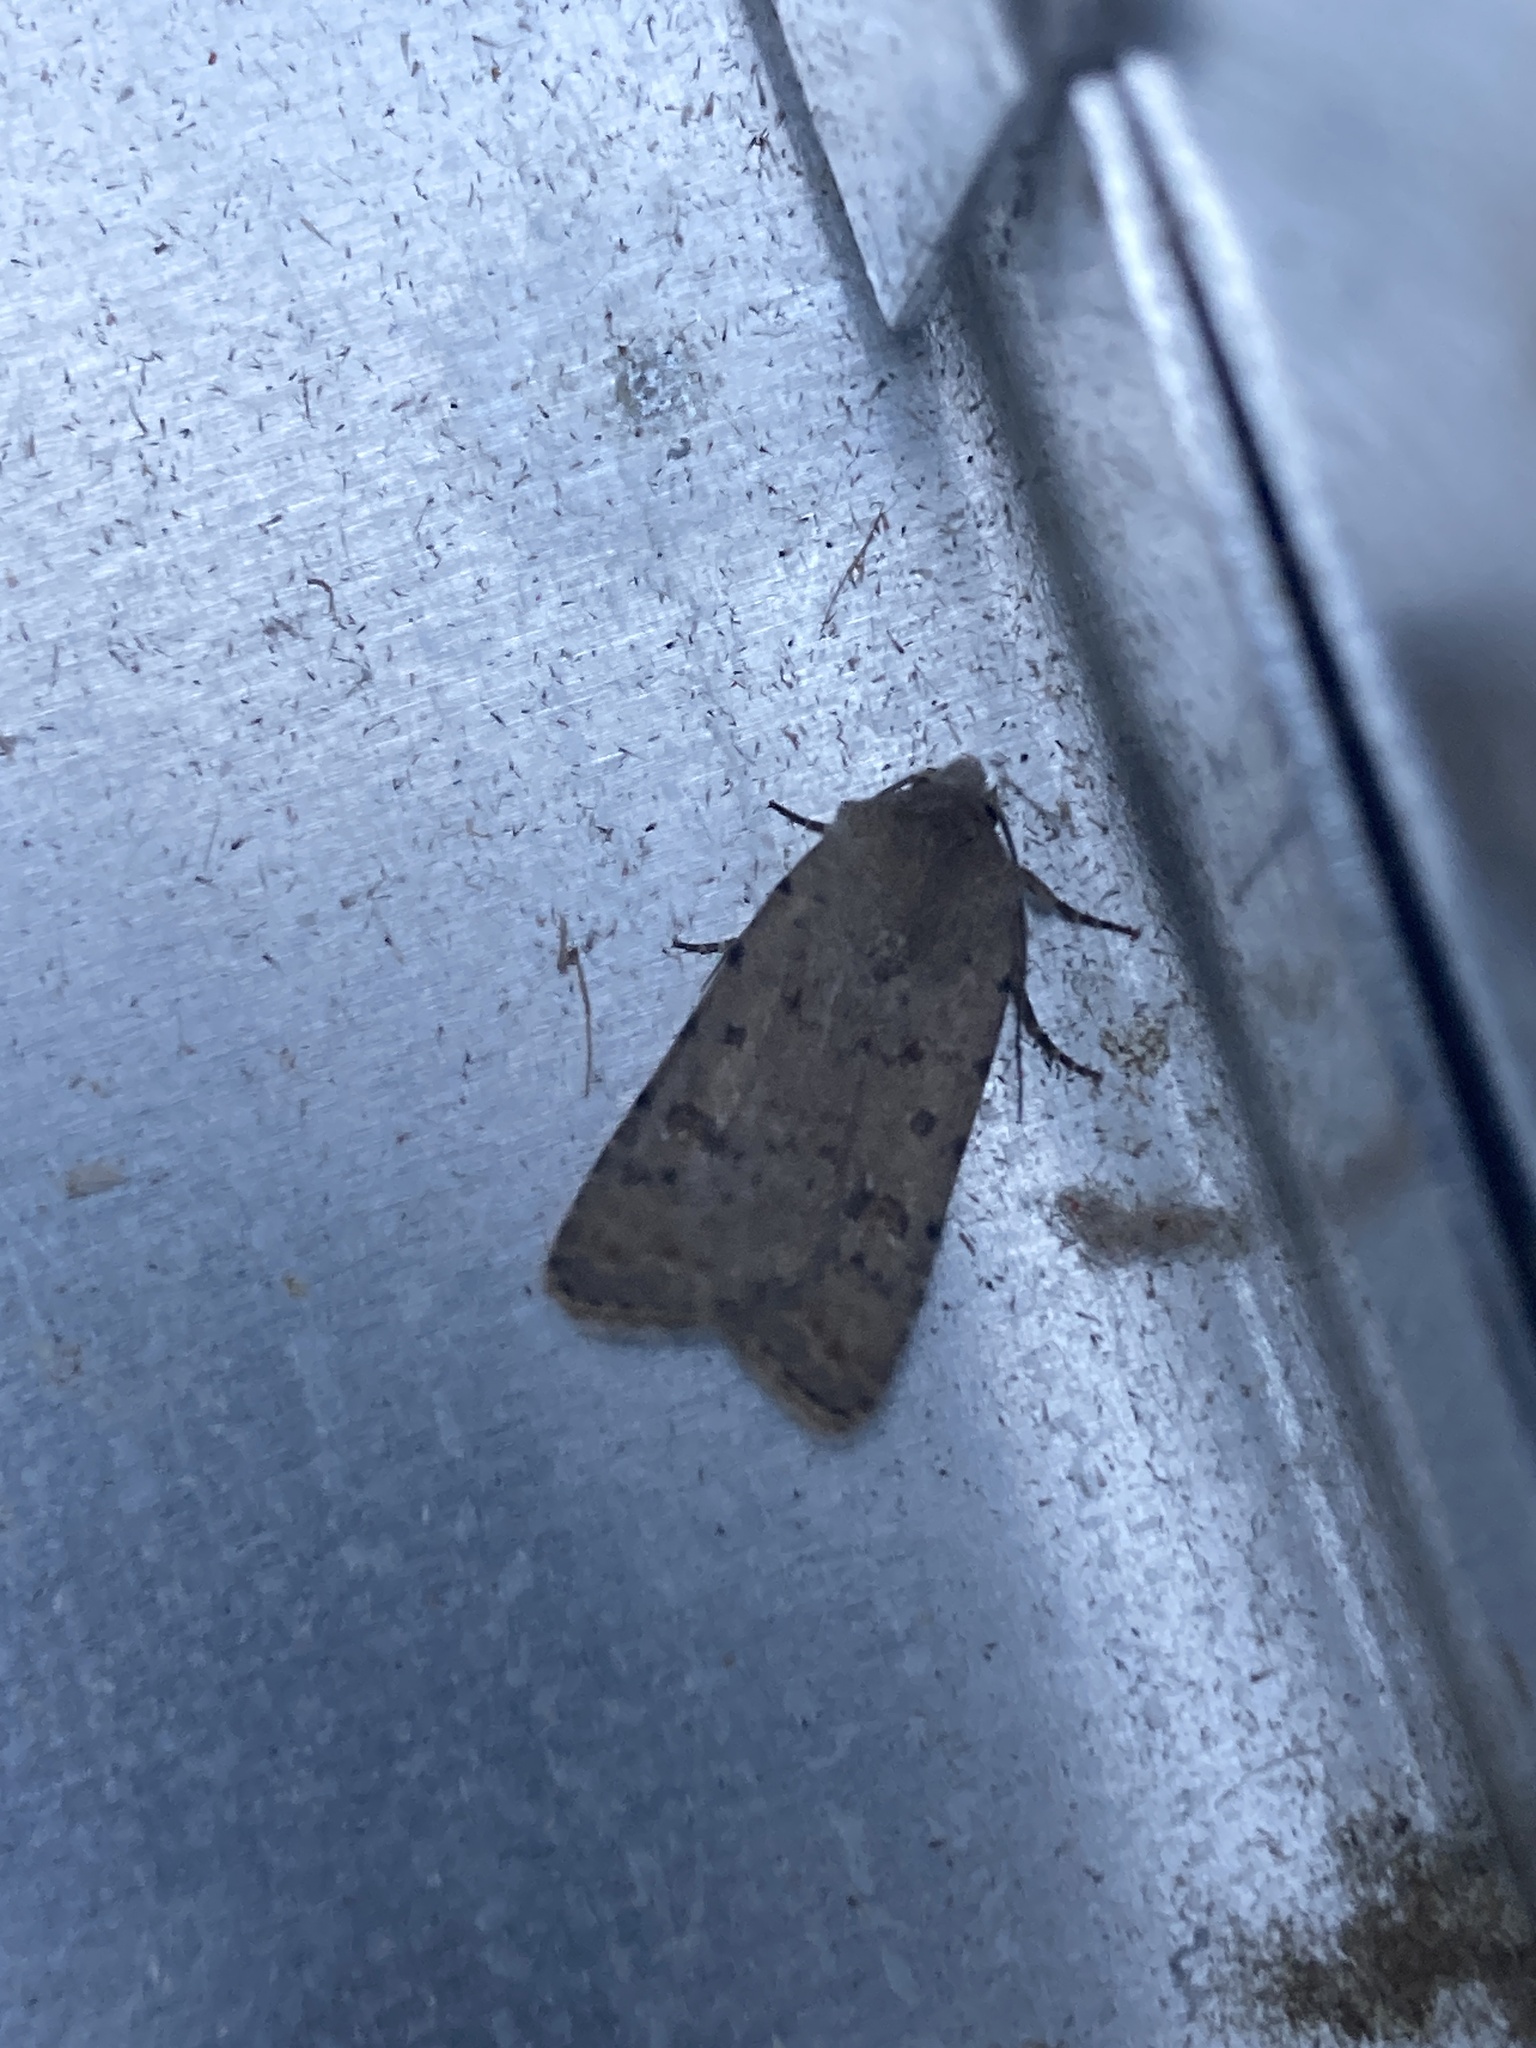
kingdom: Animalia
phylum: Arthropoda
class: Insecta
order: Lepidoptera
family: Noctuidae
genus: Caradrina
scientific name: Caradrina clavipalpis
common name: Pale mottled willow
